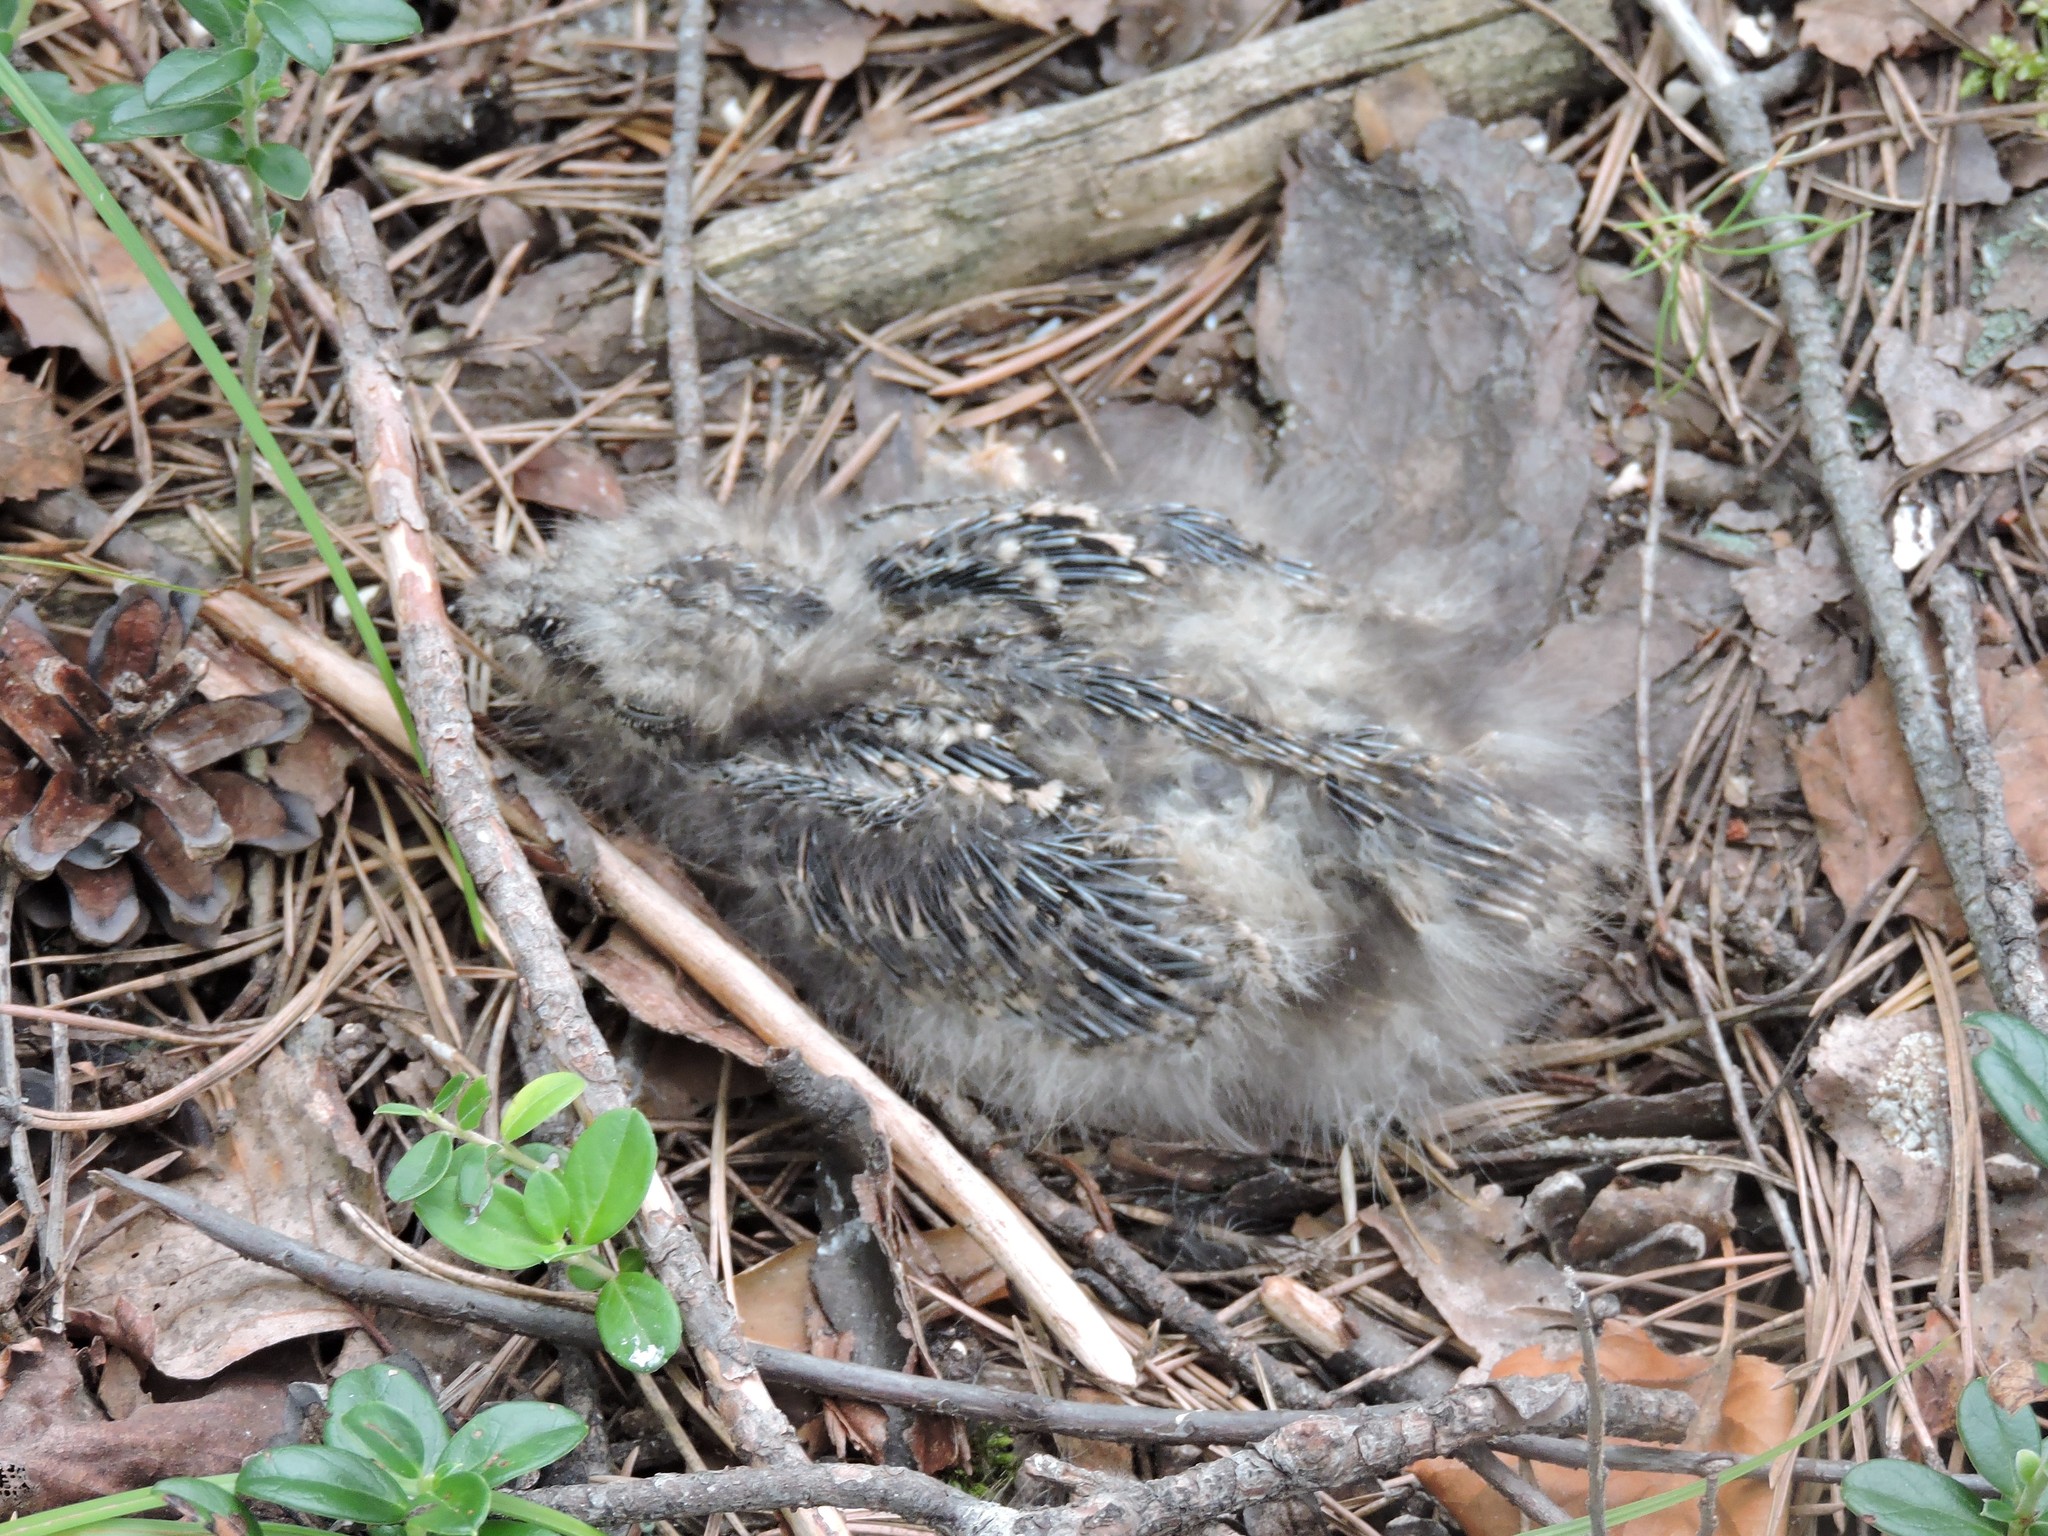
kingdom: Animalia
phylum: Chordata
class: Aves
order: Caprimulgiformes
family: Caprimulgidae
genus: Caprimulgus
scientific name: Caprimulgus europaeus
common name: European nightjar
